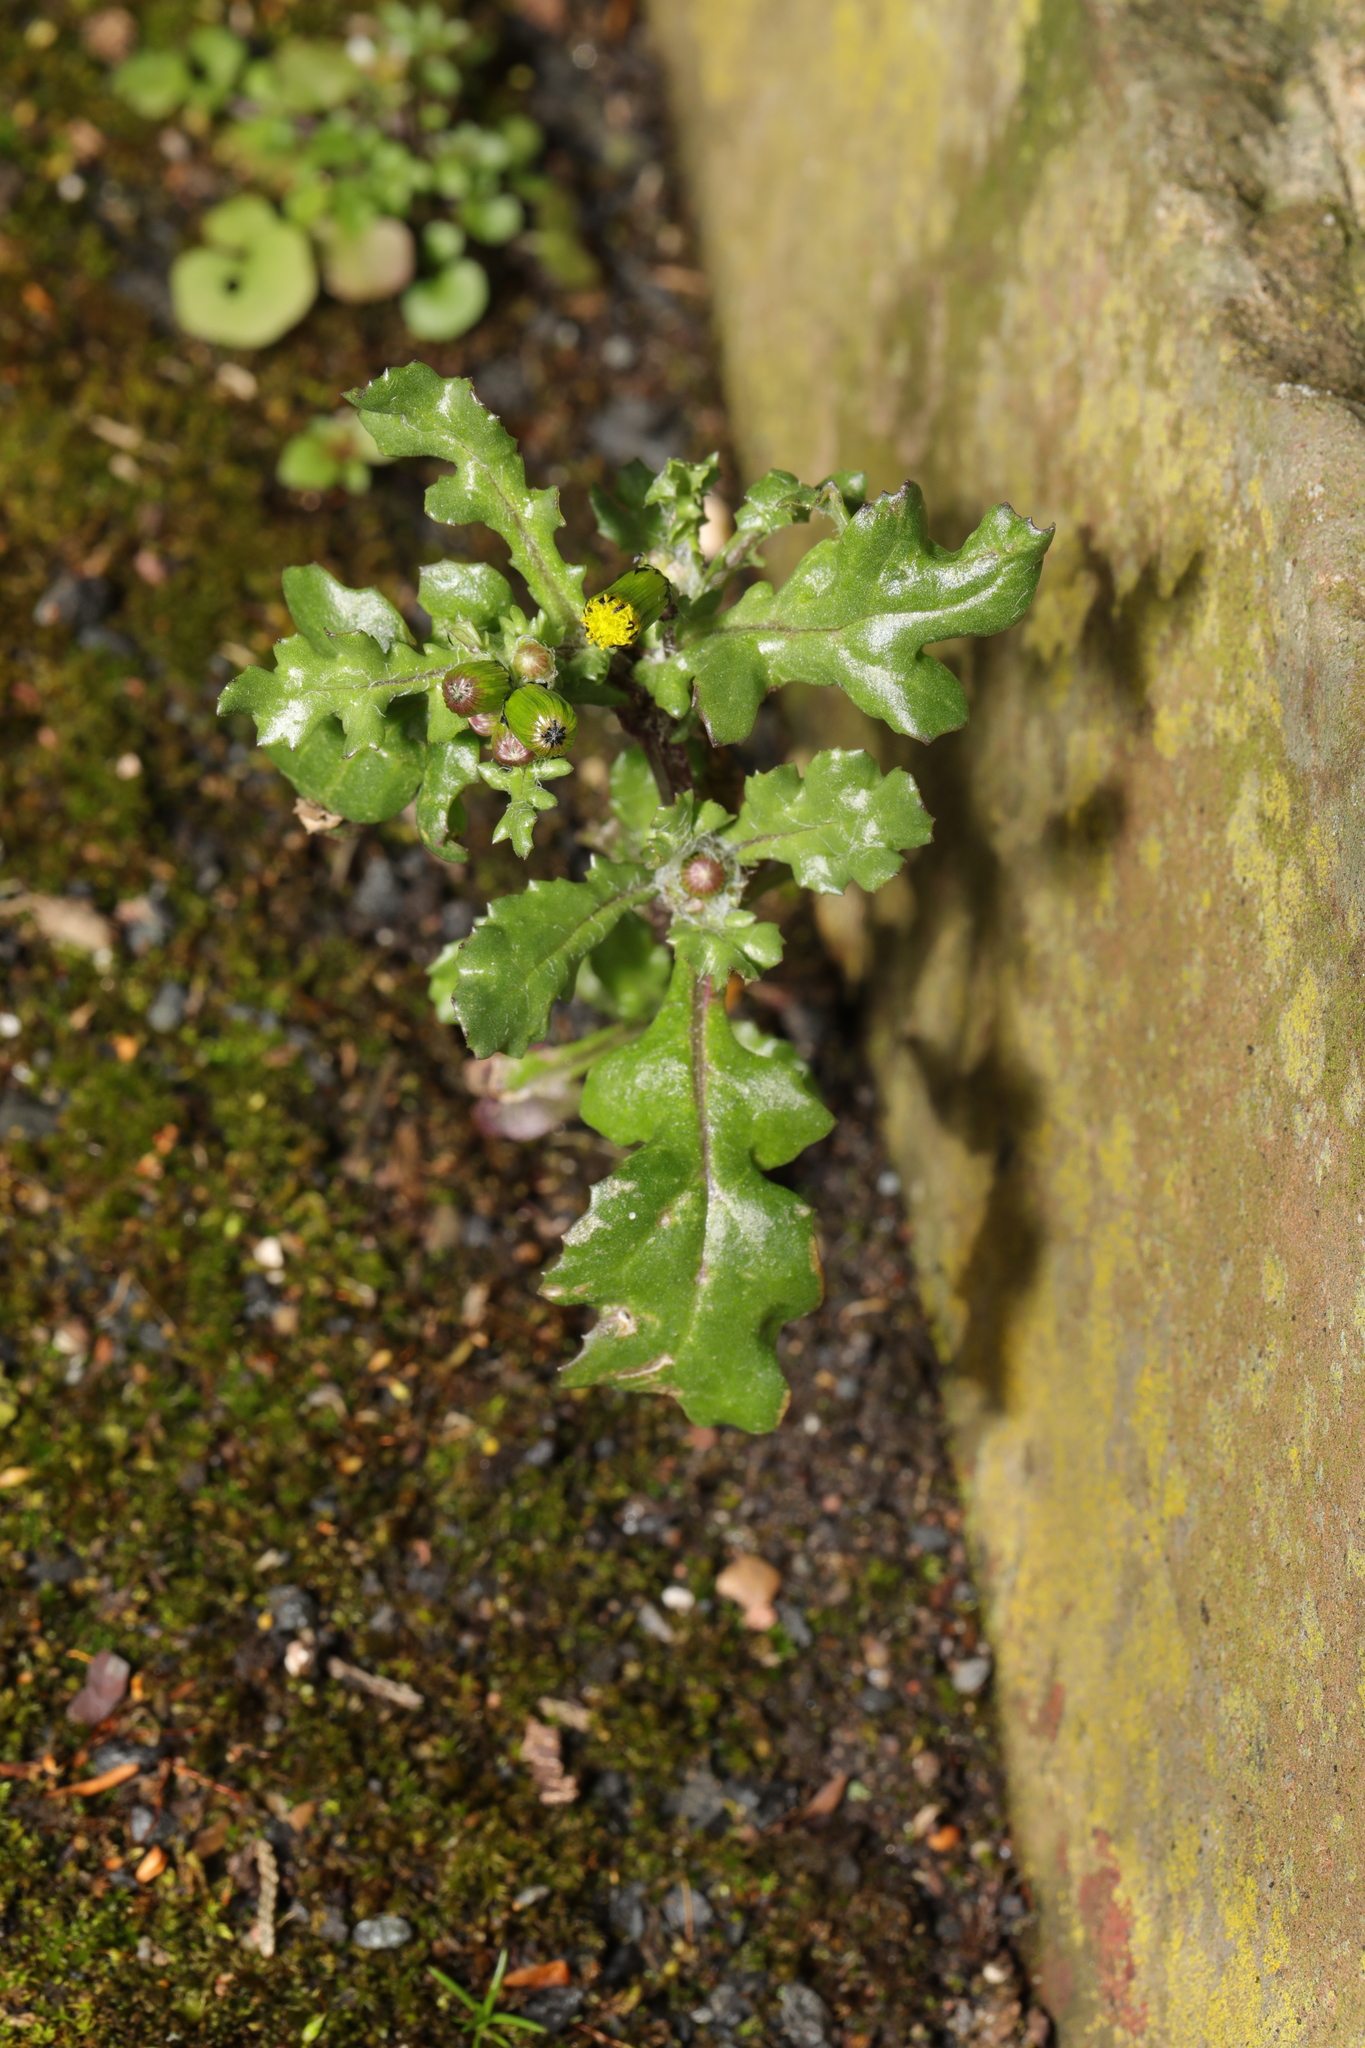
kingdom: Plantae
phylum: Tracheophyta
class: Magnoliopsida
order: Asterales
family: Asteraceae
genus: Senecio
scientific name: Senecio vulgaris
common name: Old-man-in-the-spring
